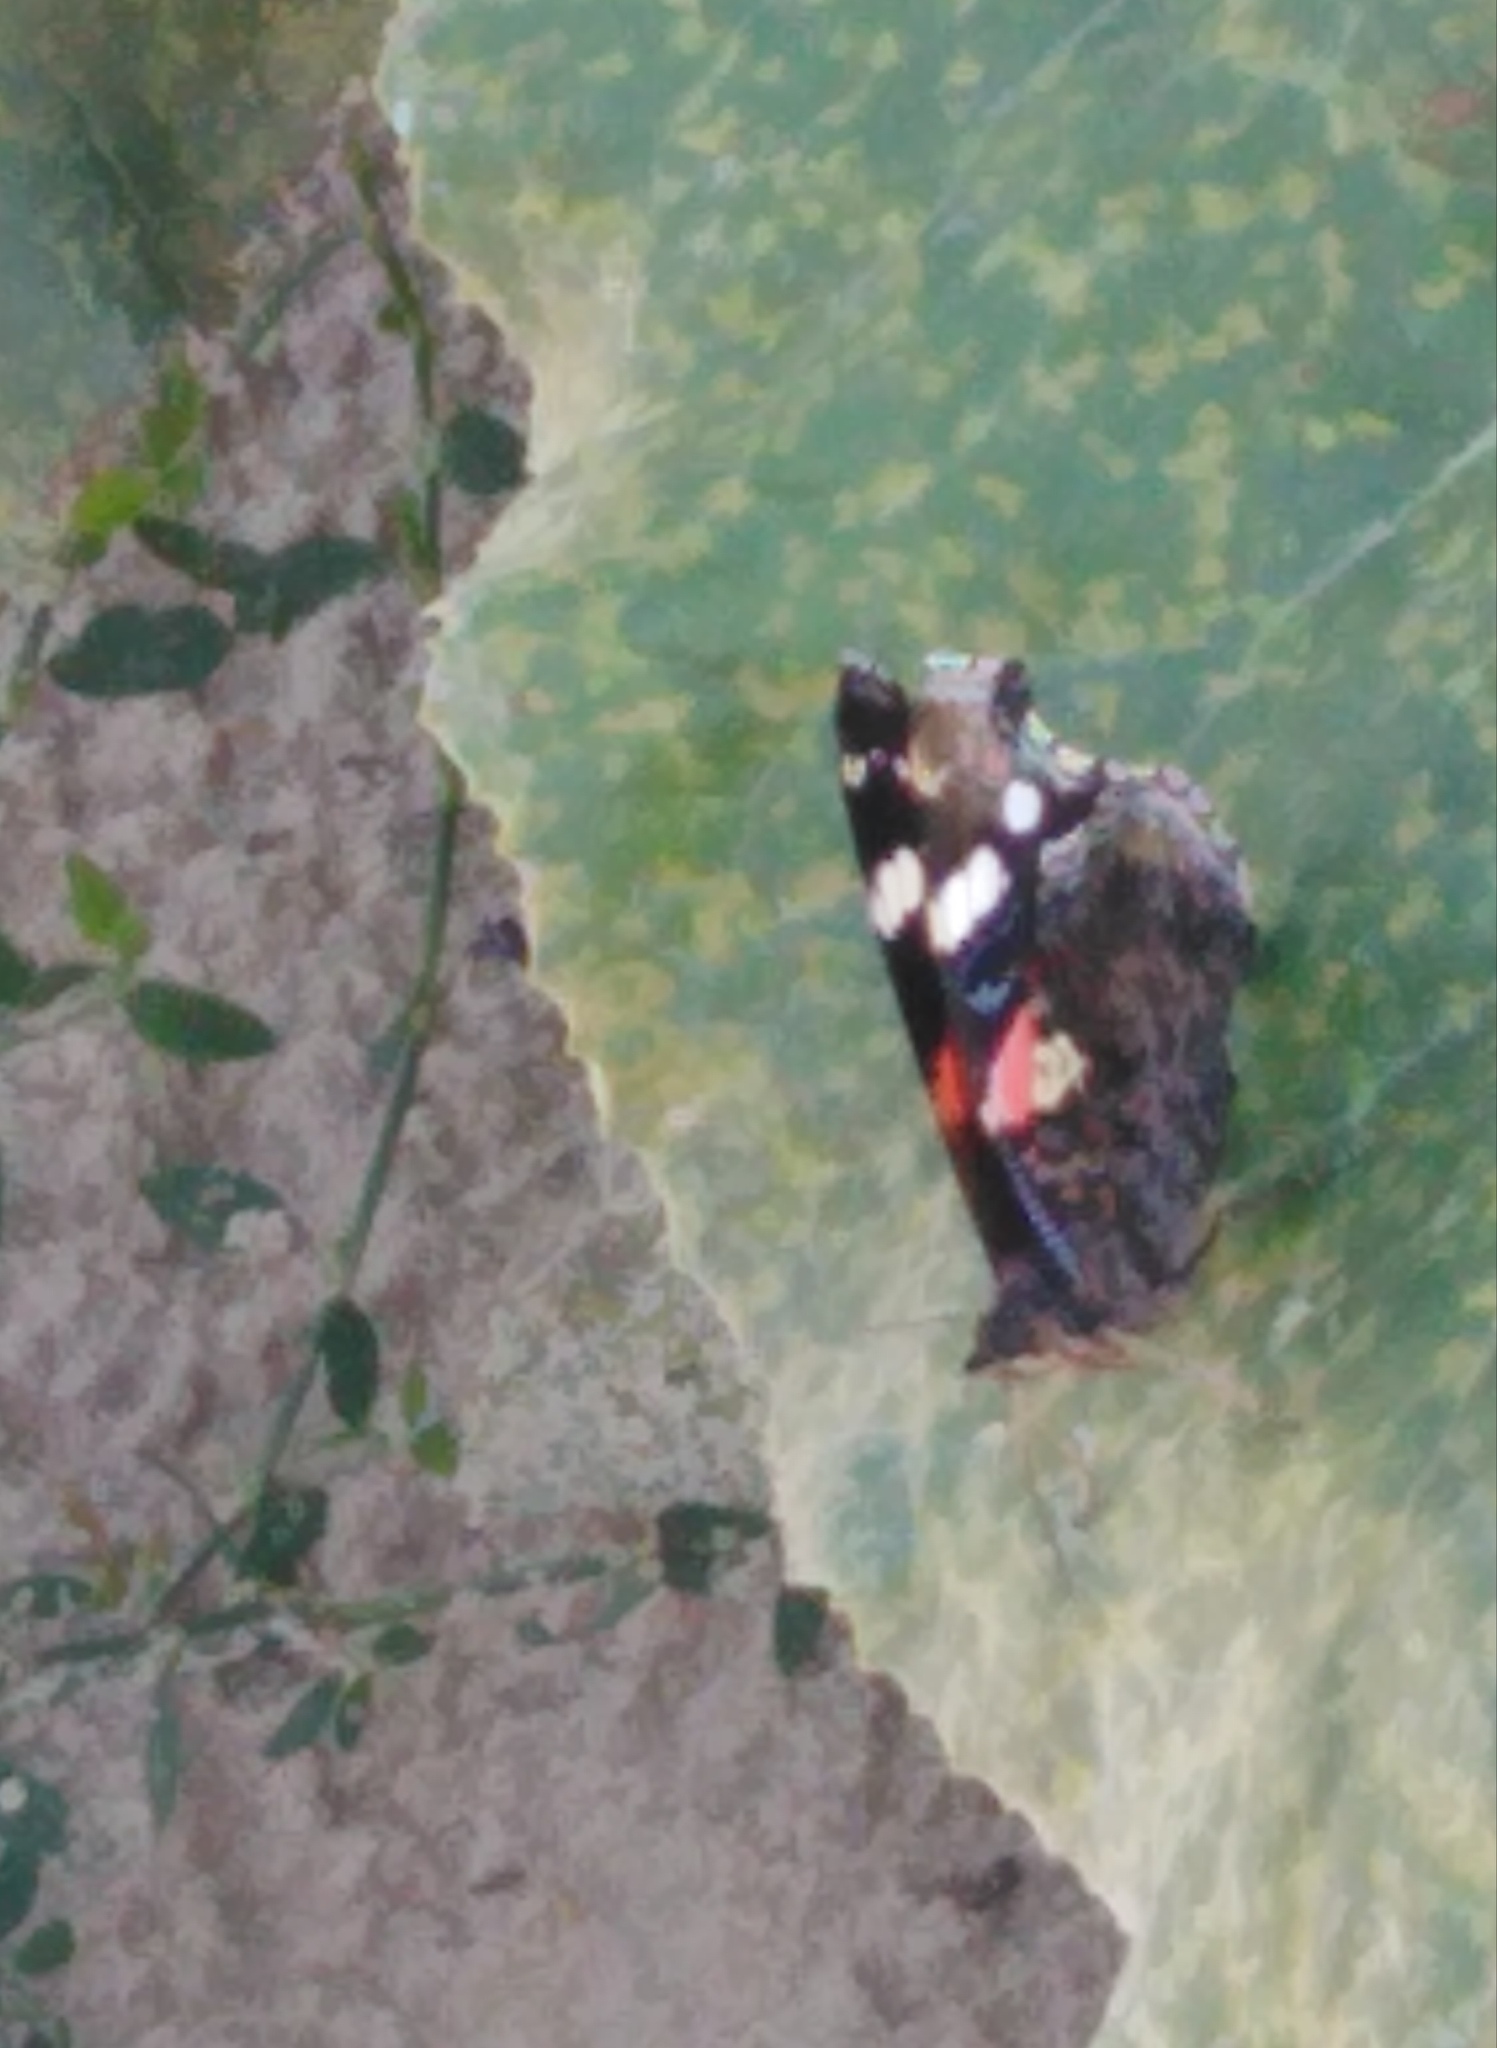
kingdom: Animalia
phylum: Arthropoda
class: Insecta
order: Lepidoptera
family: Nymphalidae
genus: Vanessa
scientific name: Vanessa atalanta
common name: Red admiral
